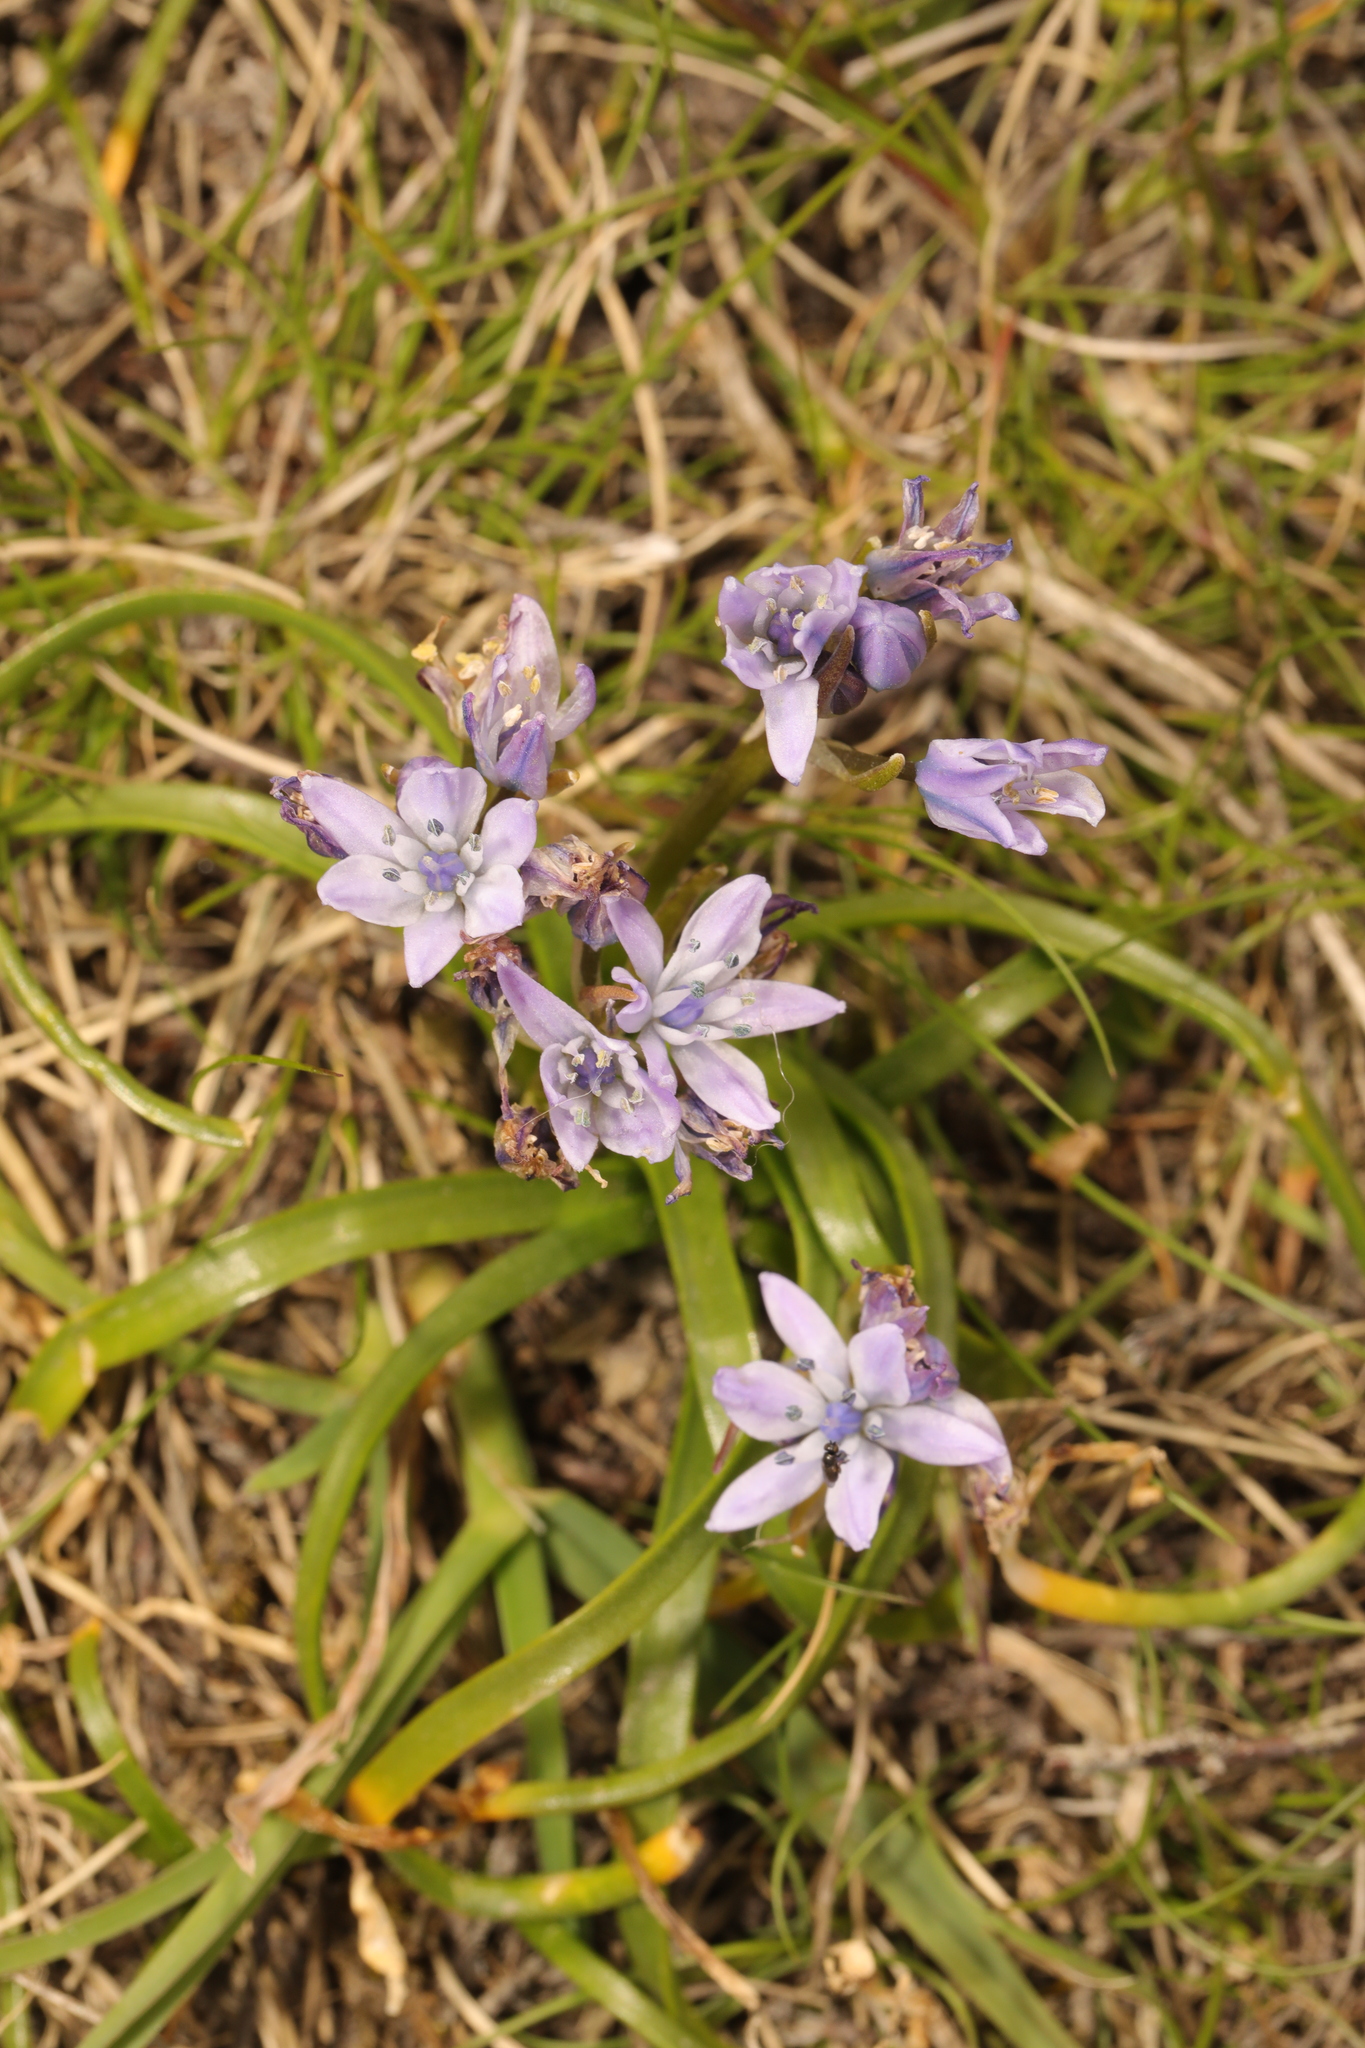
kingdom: Plantae
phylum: Tracheophyta
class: Liliopsida
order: Asparagales
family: Asparagaceae
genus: Scilla
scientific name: Scilla verna
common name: Spring squill
